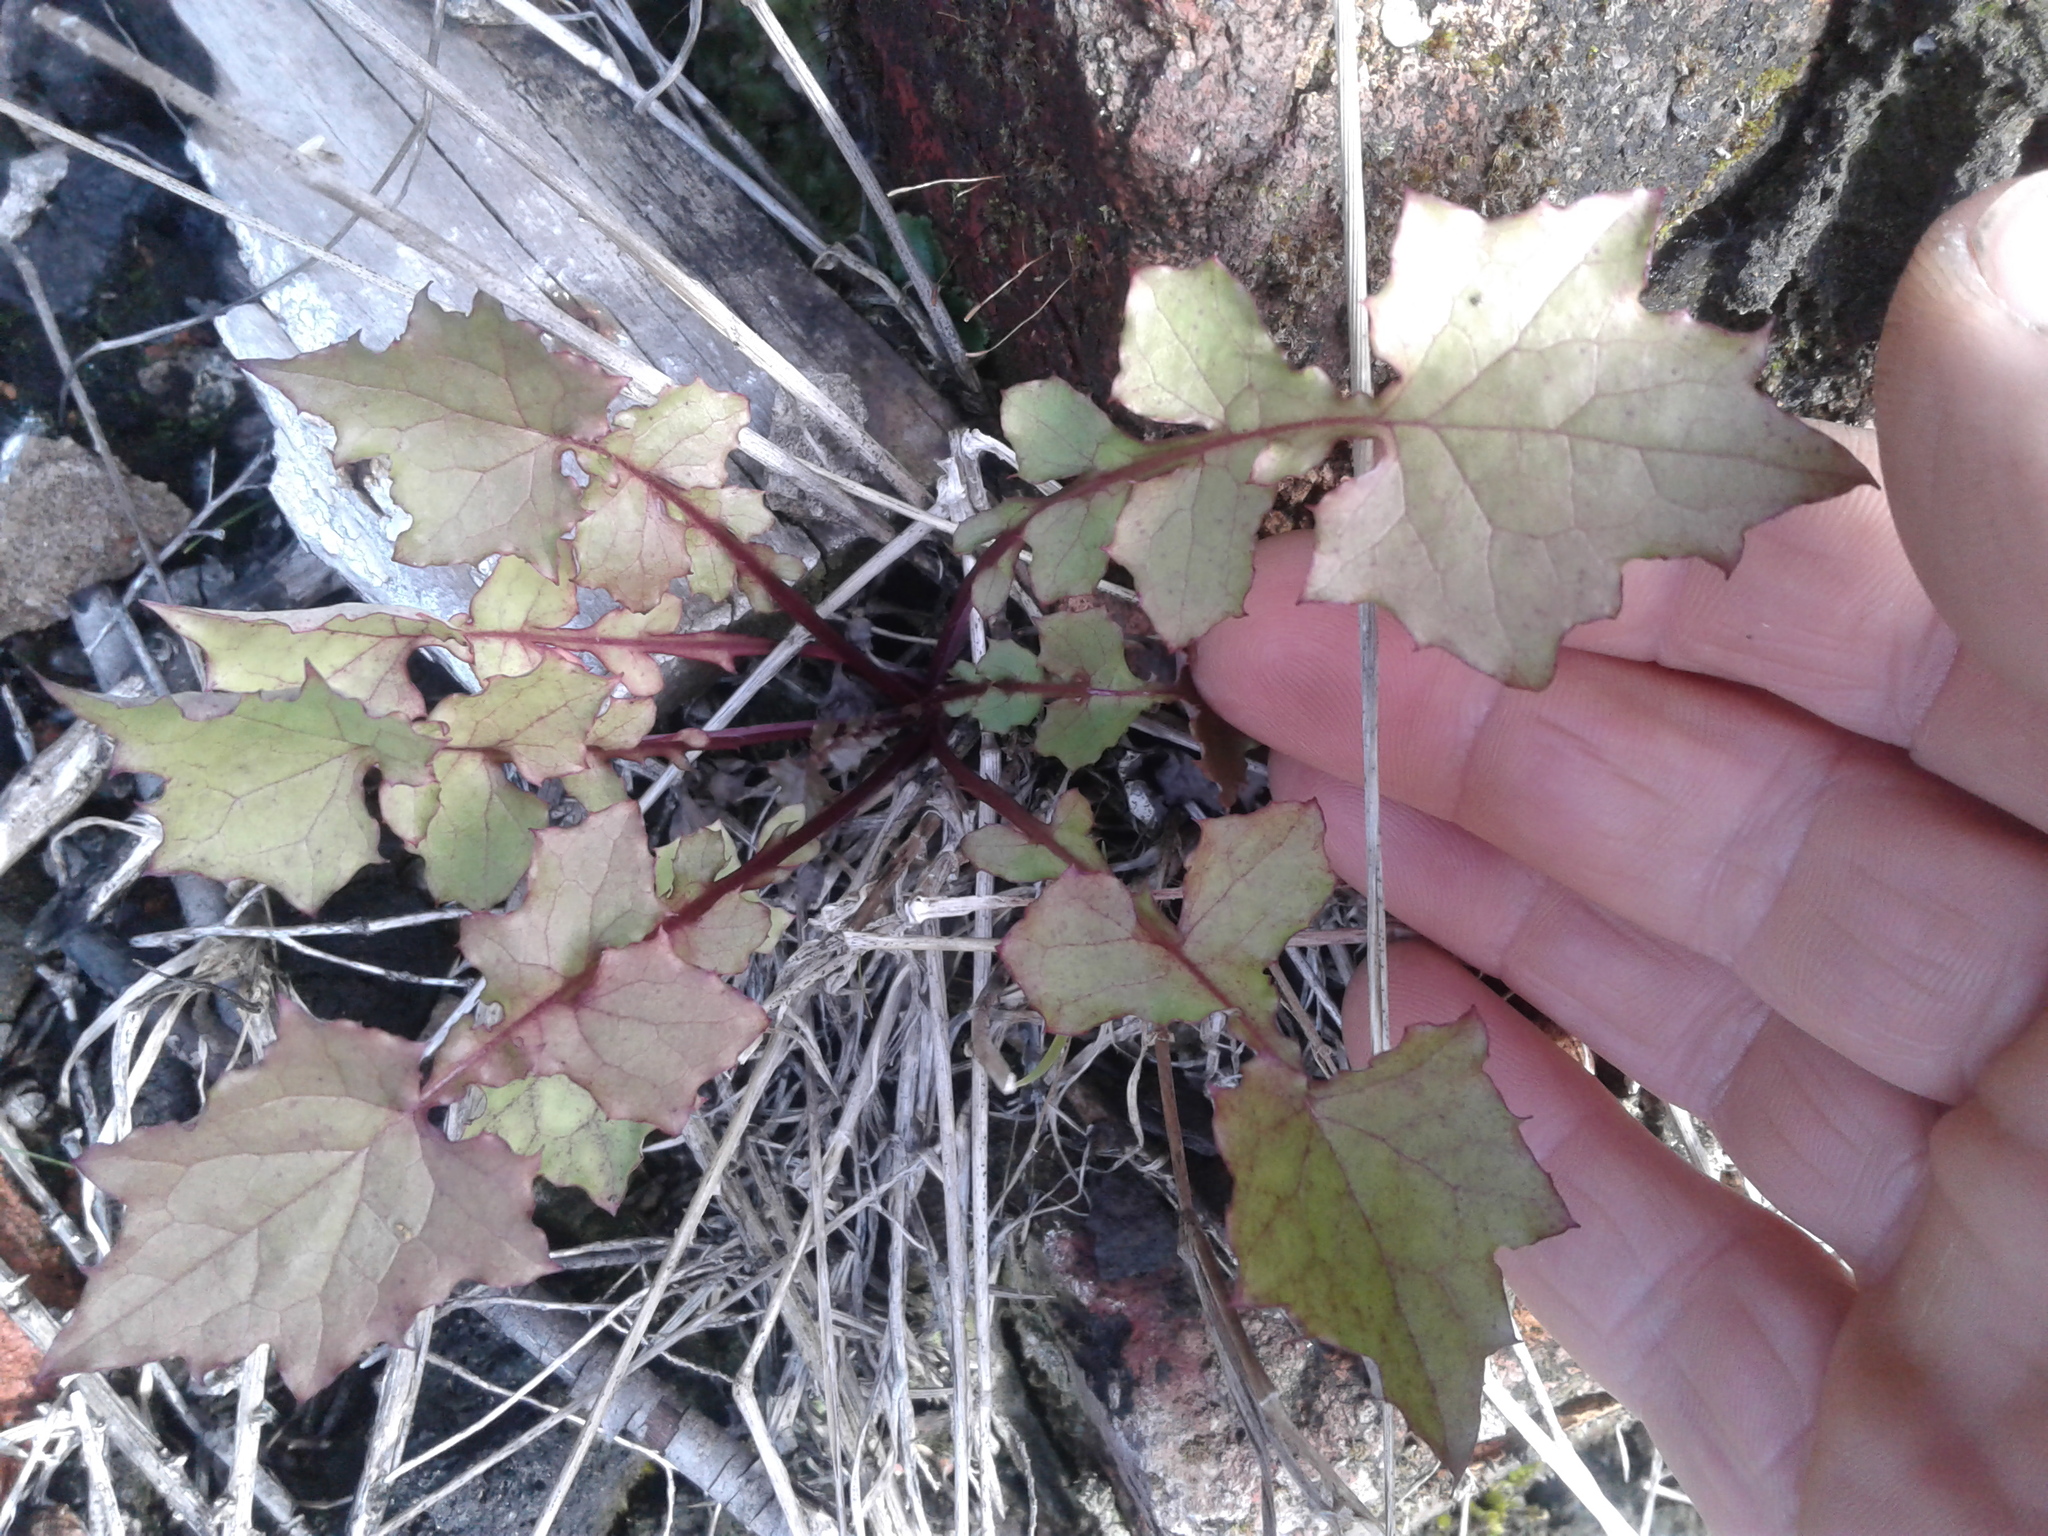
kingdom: Plantae
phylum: Tracheophyta
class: Magnoliopsida
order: Asterales
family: Asteraceae
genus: Mycelis
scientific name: Mycelis muralis
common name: Wall lettuce
